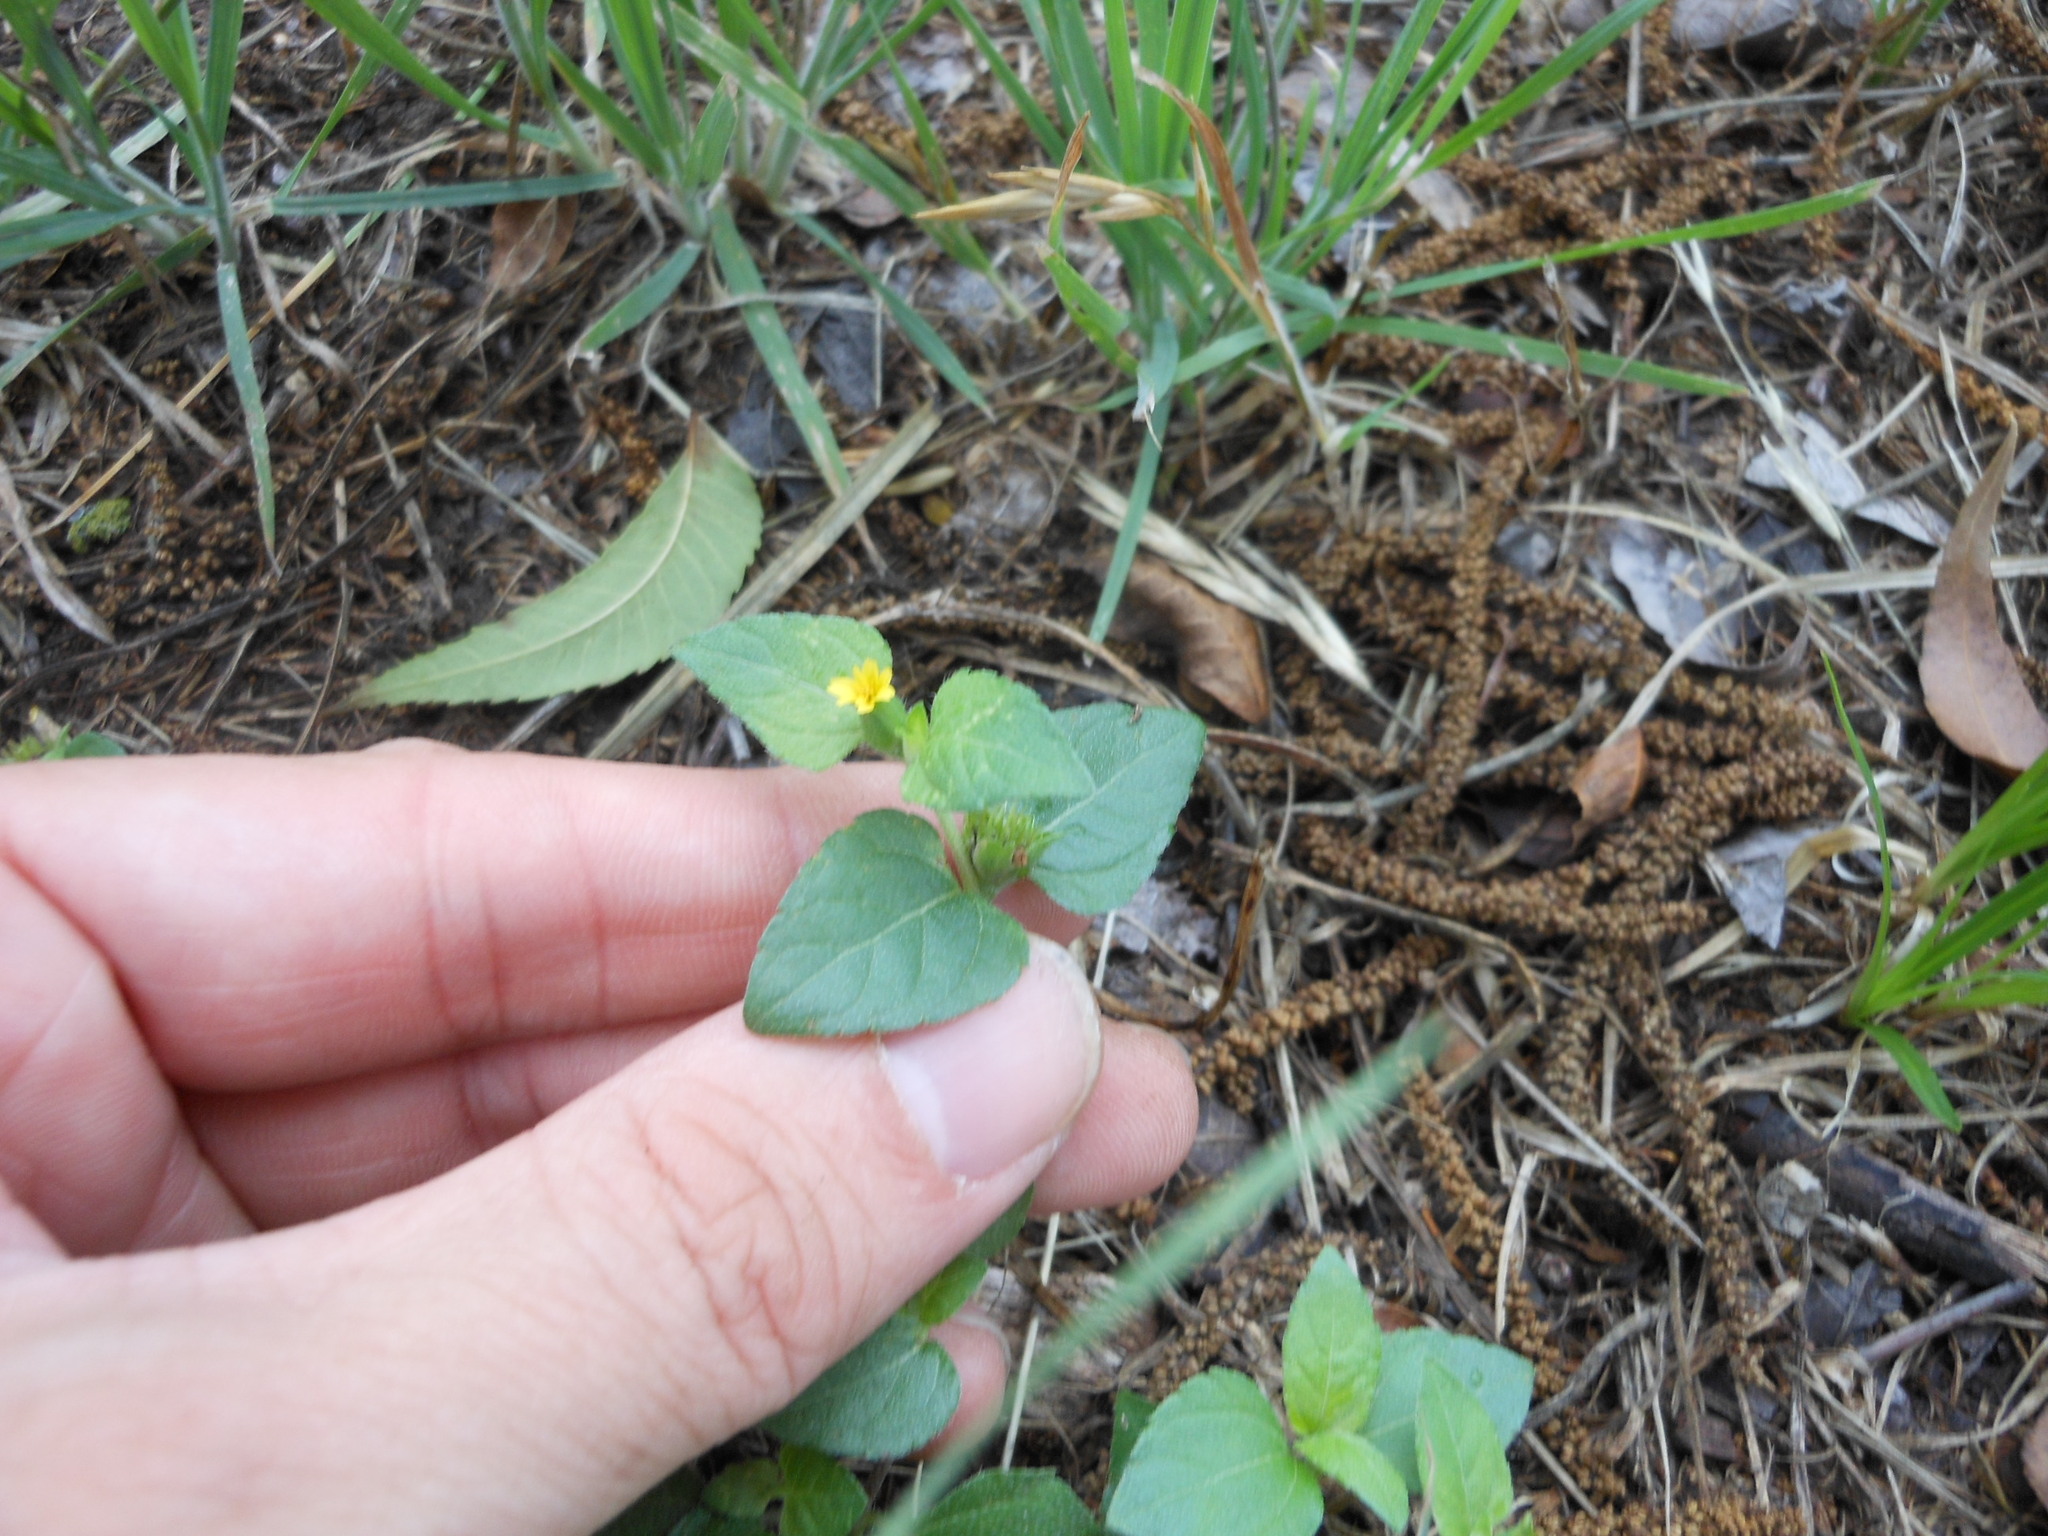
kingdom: Plantae
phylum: Tracheophyta
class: Magnoliopsida
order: Asterales
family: Asteraceae
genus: Calyptocarpus
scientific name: Calyptocarpus vialis
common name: Straggler daisy
